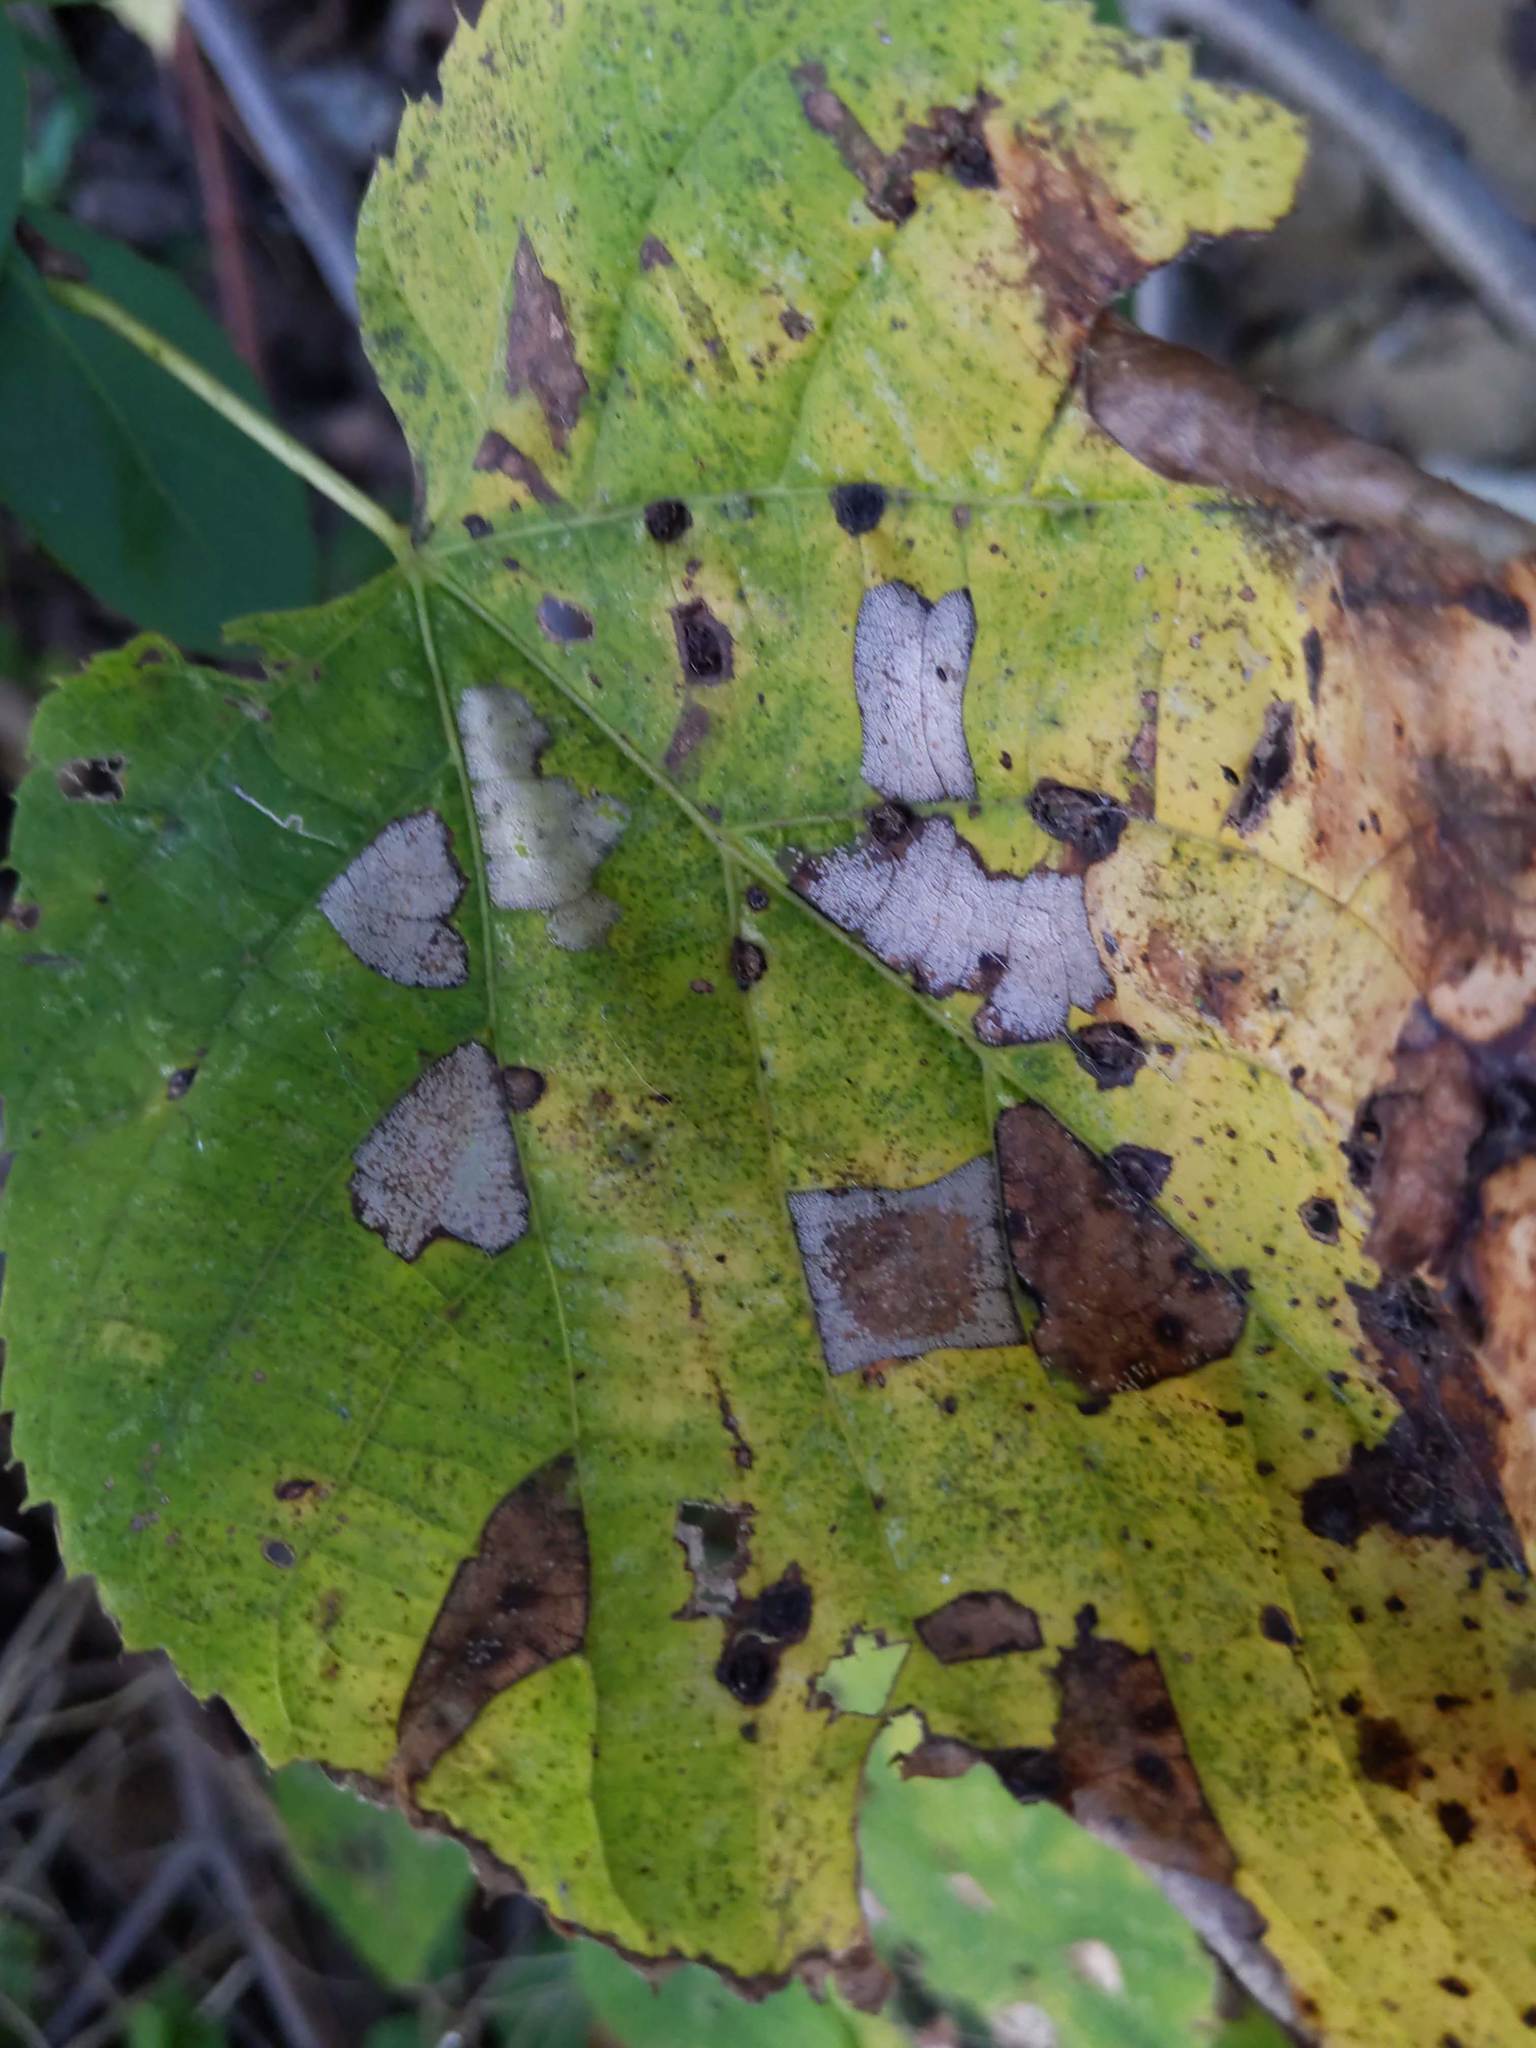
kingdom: Animalia
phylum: Arthropoda
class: Insecta
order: Lepidoptera
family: Gracillariidae
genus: Phyllonorycter
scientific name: Phyllonorycter lucetiella
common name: Basswood miner moth
